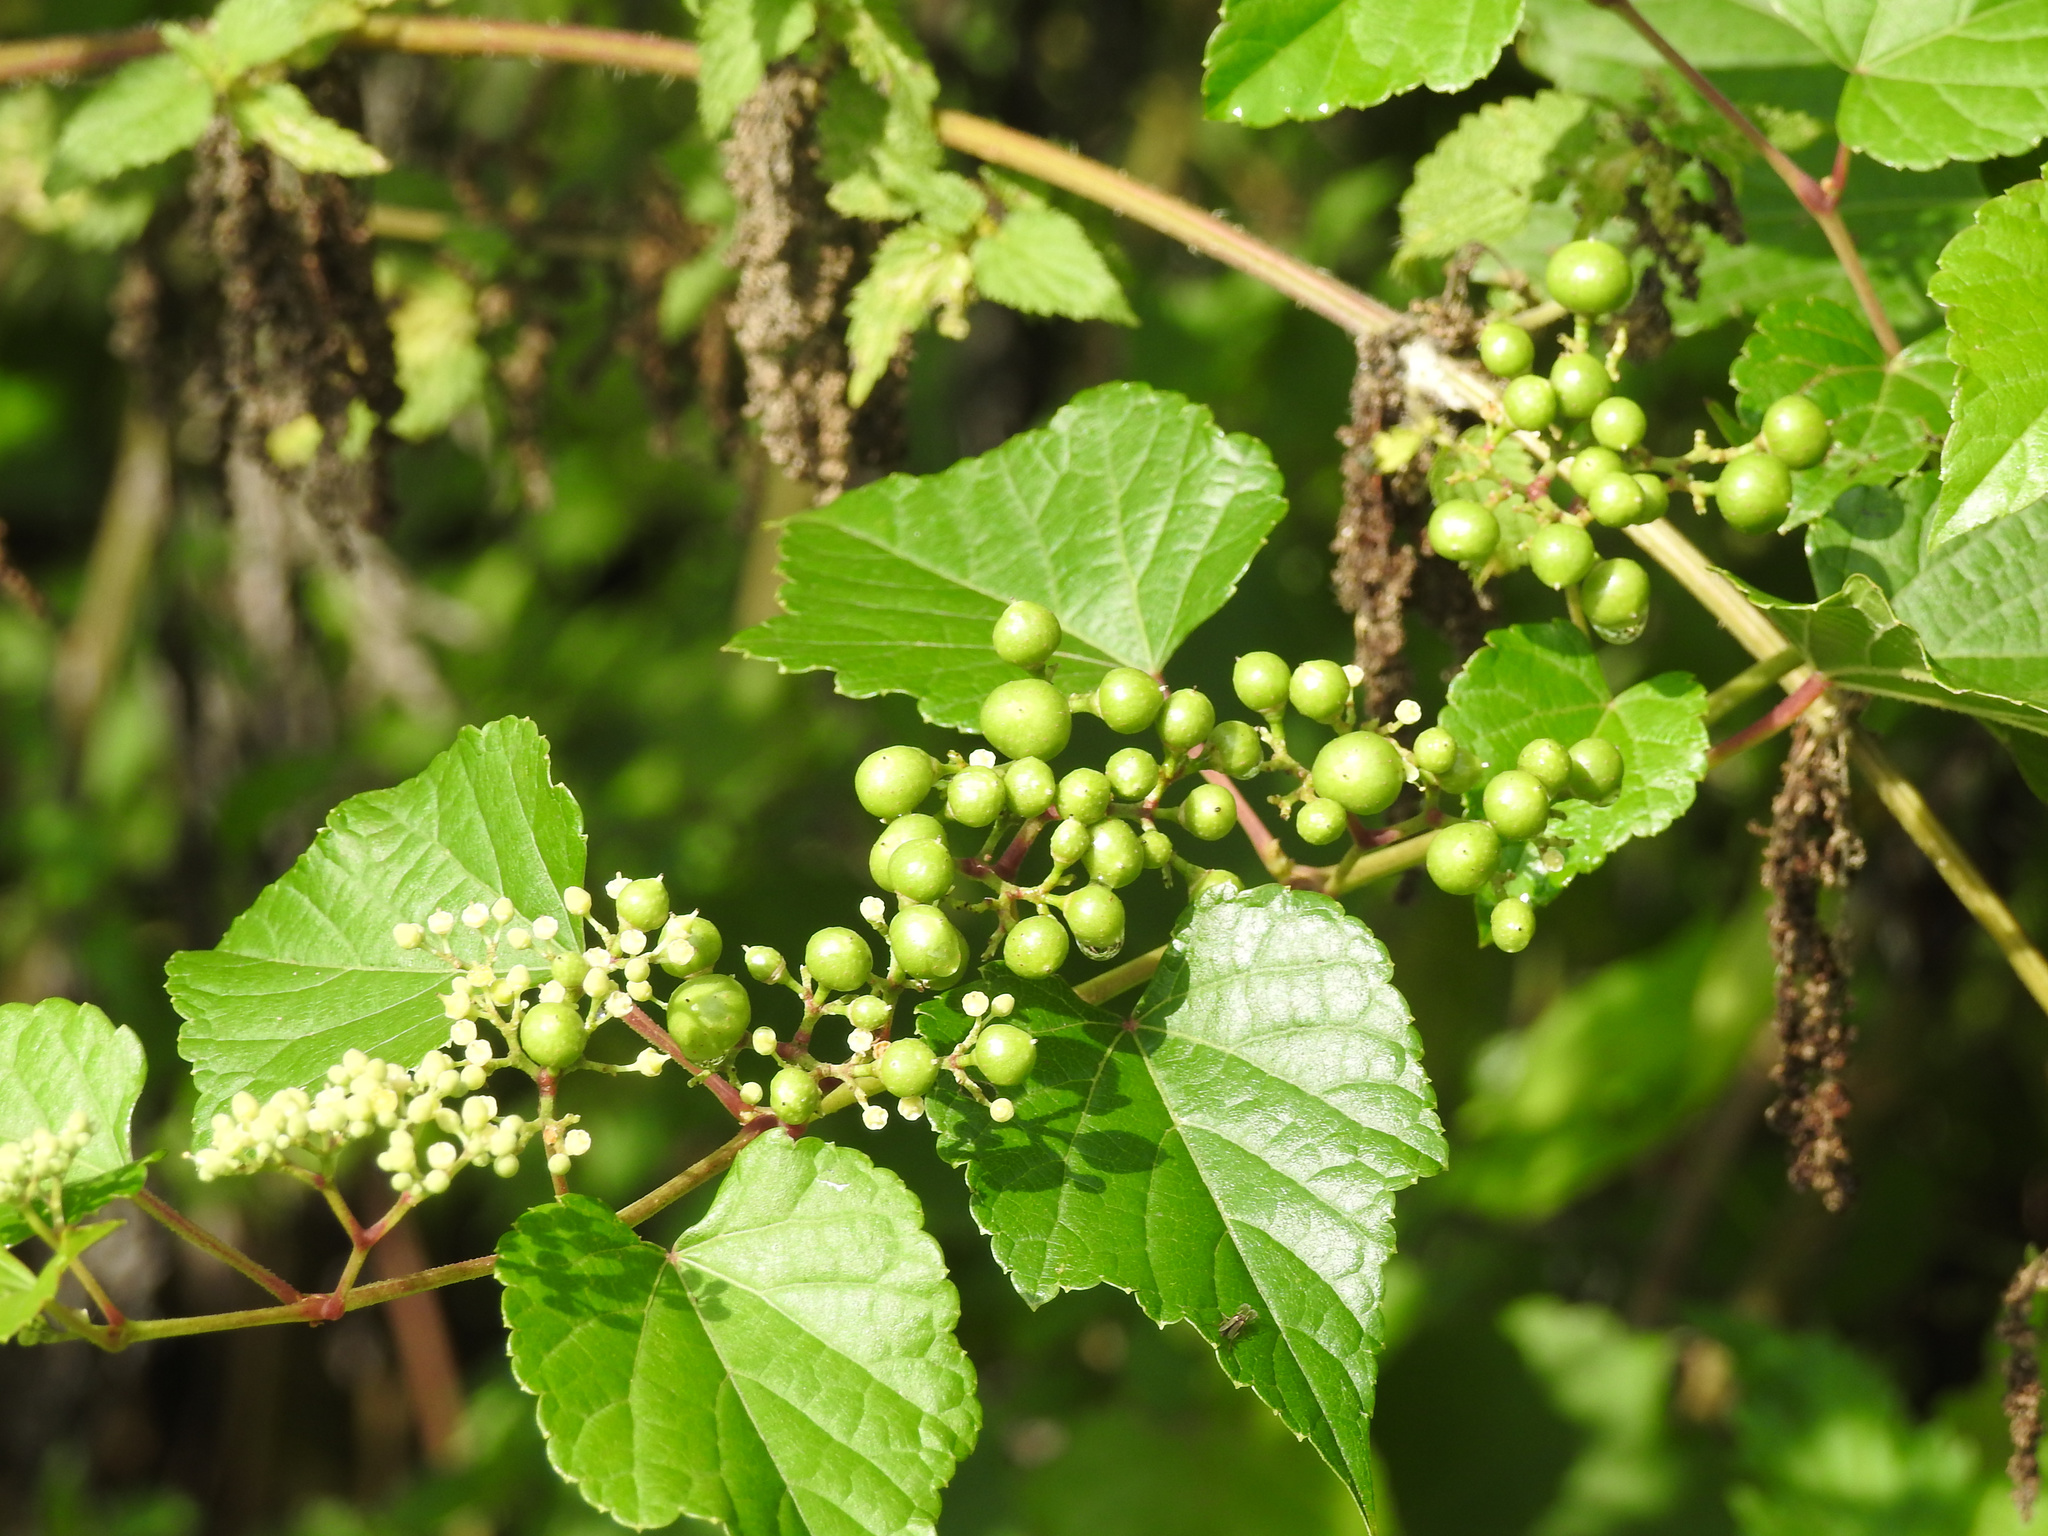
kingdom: Plantae
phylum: Tracheophyta
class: Magnoliopsida
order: Vitales
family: Vitaceae
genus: Ampelopsis
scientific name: Ampelopsis glandulosa
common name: Amur peppervine
